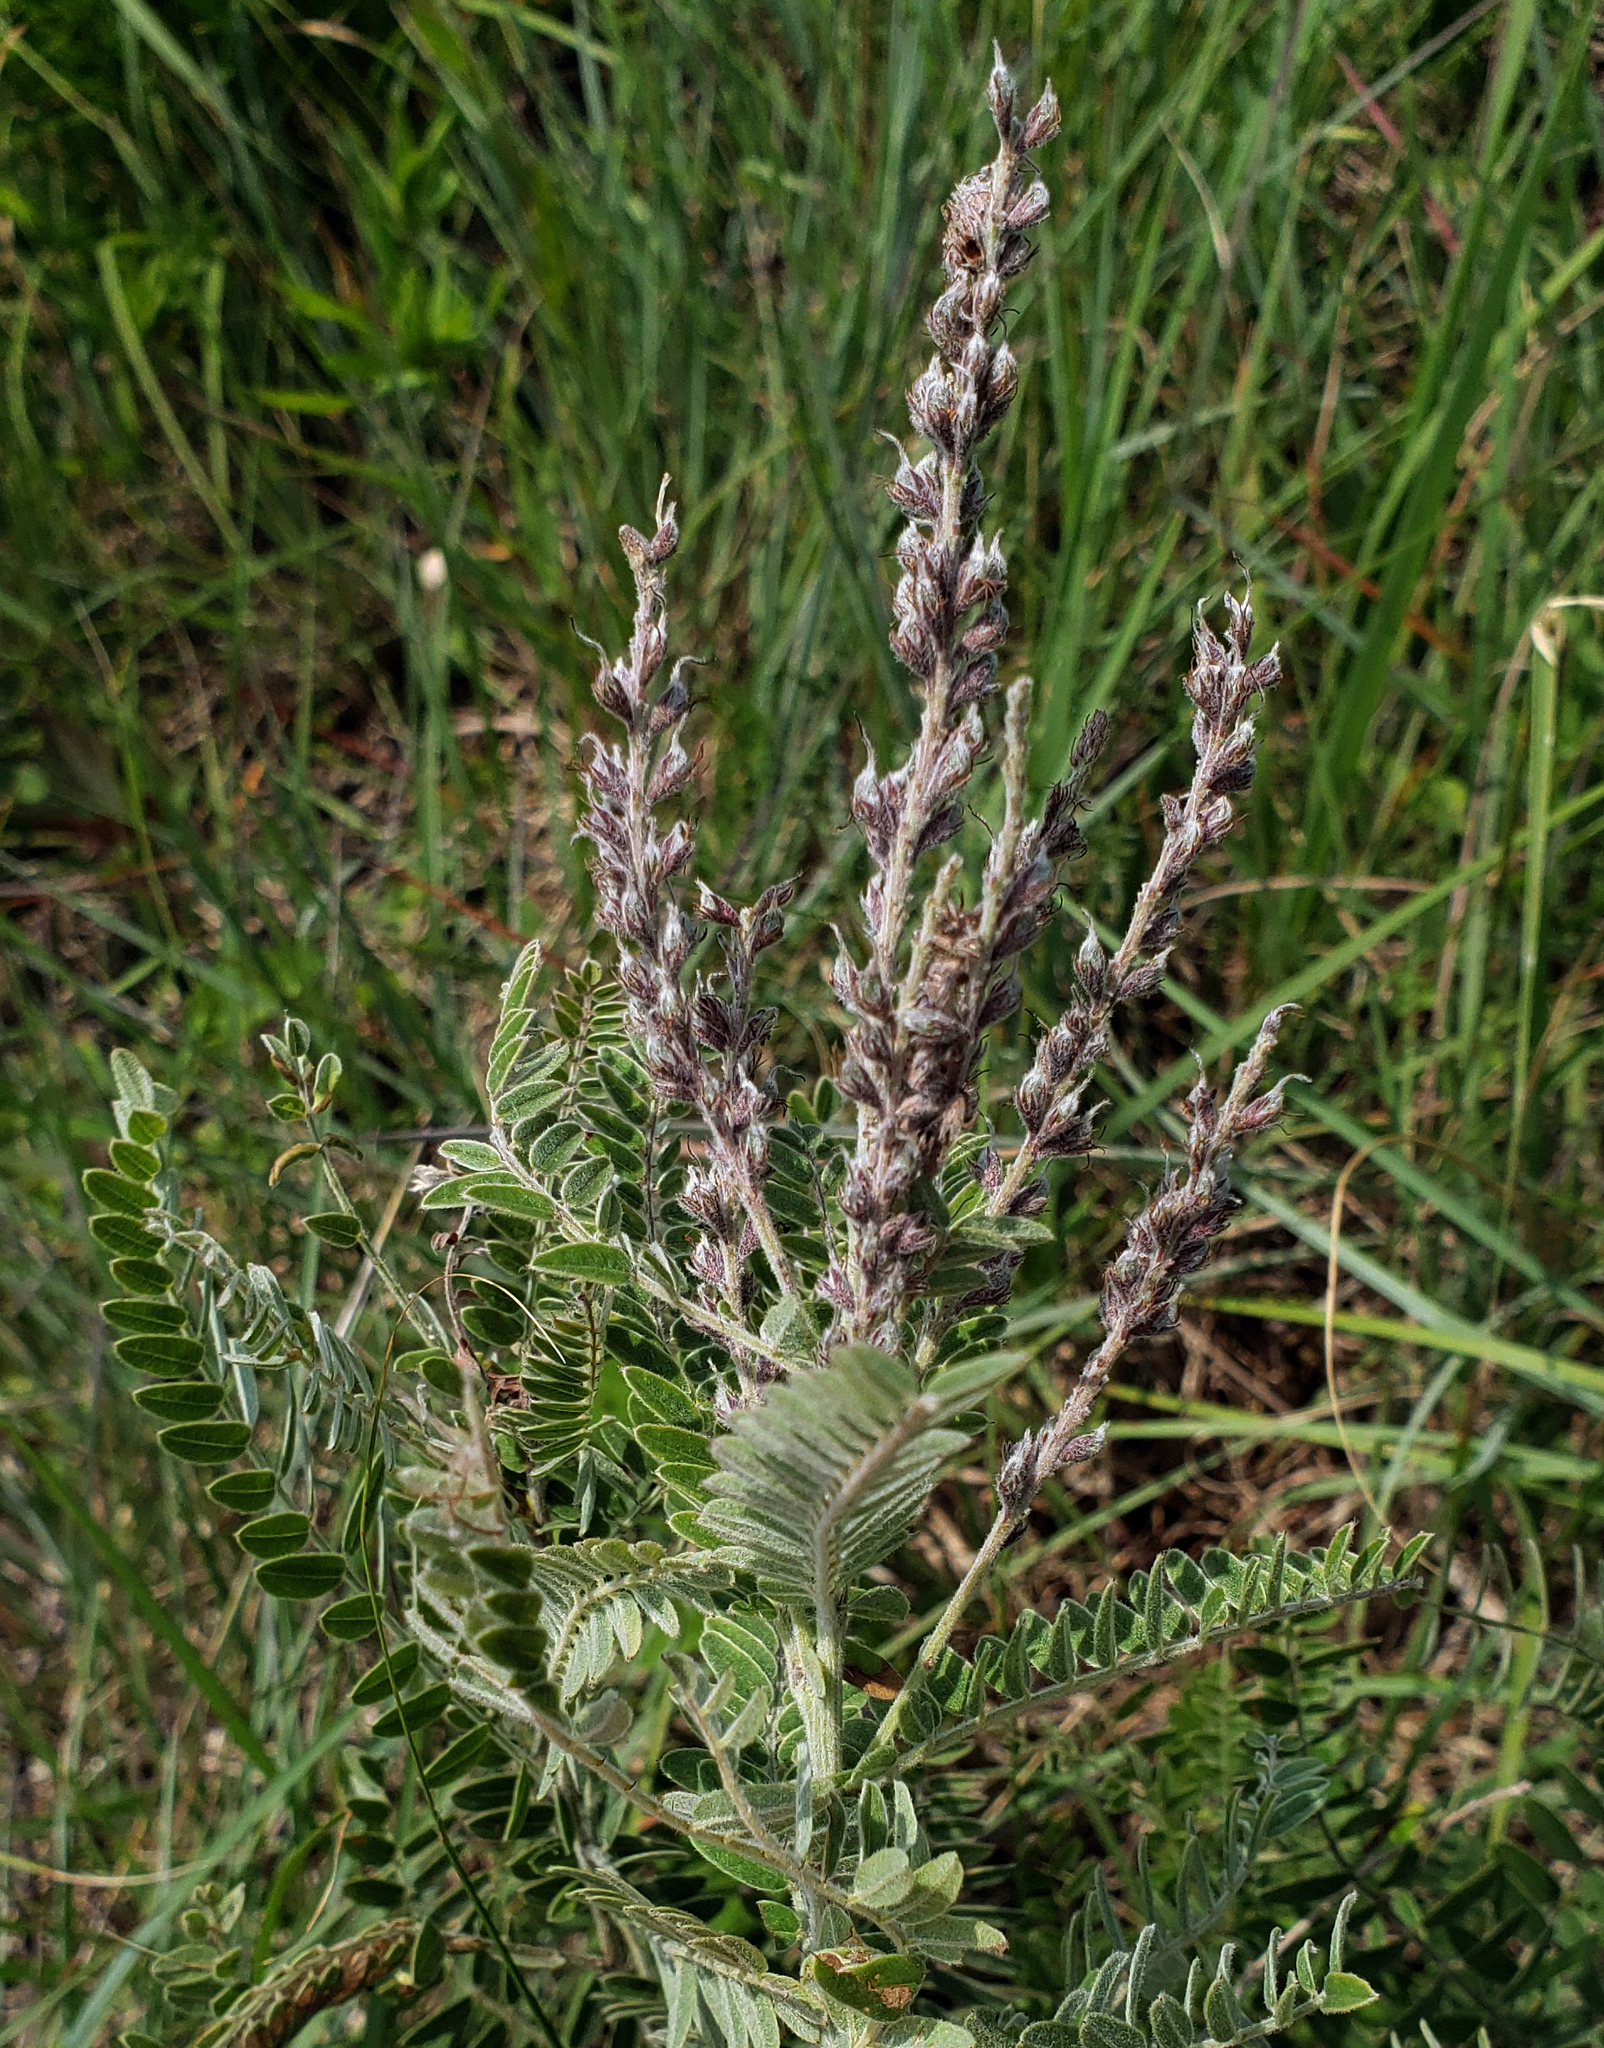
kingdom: Plantae
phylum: Tracheophyta
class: Magnoliopsida
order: Fabales
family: Fabaceae
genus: Amorpha
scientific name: Amorpha canescens
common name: Leadplant
